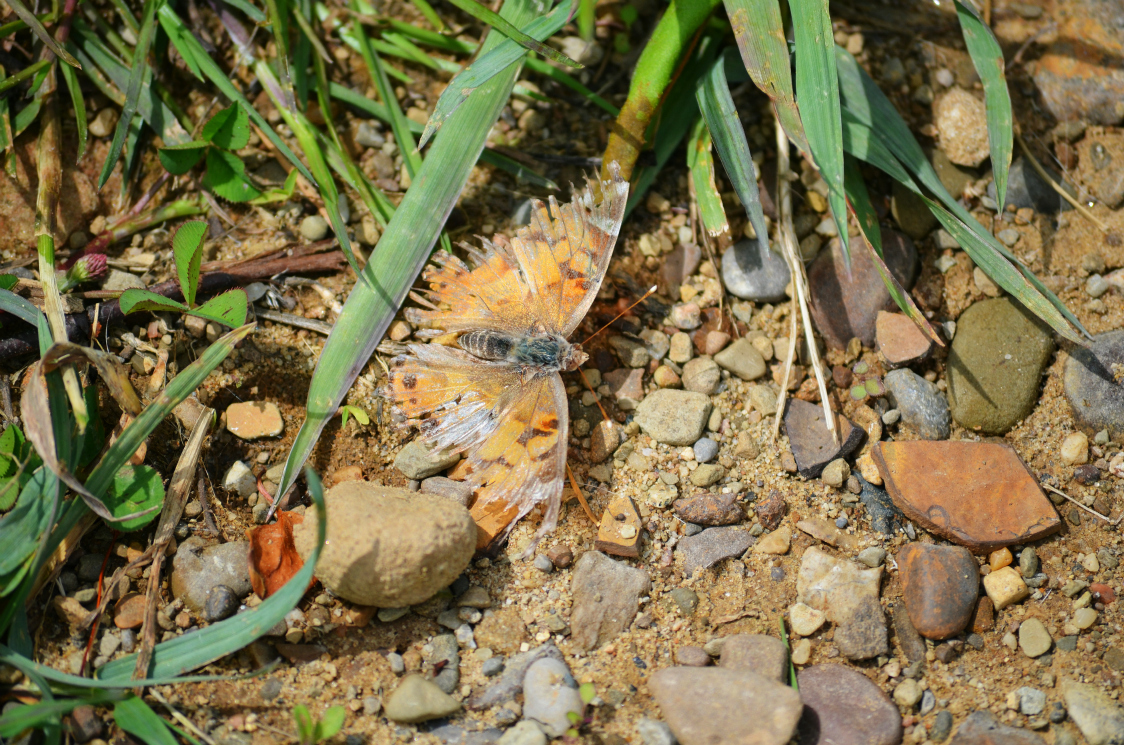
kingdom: Animalia
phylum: Arthropoda
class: Insecta
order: Lepidoptera
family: Nymphalidae
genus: Vanessa
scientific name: Vanessa virginiensis
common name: American lady
